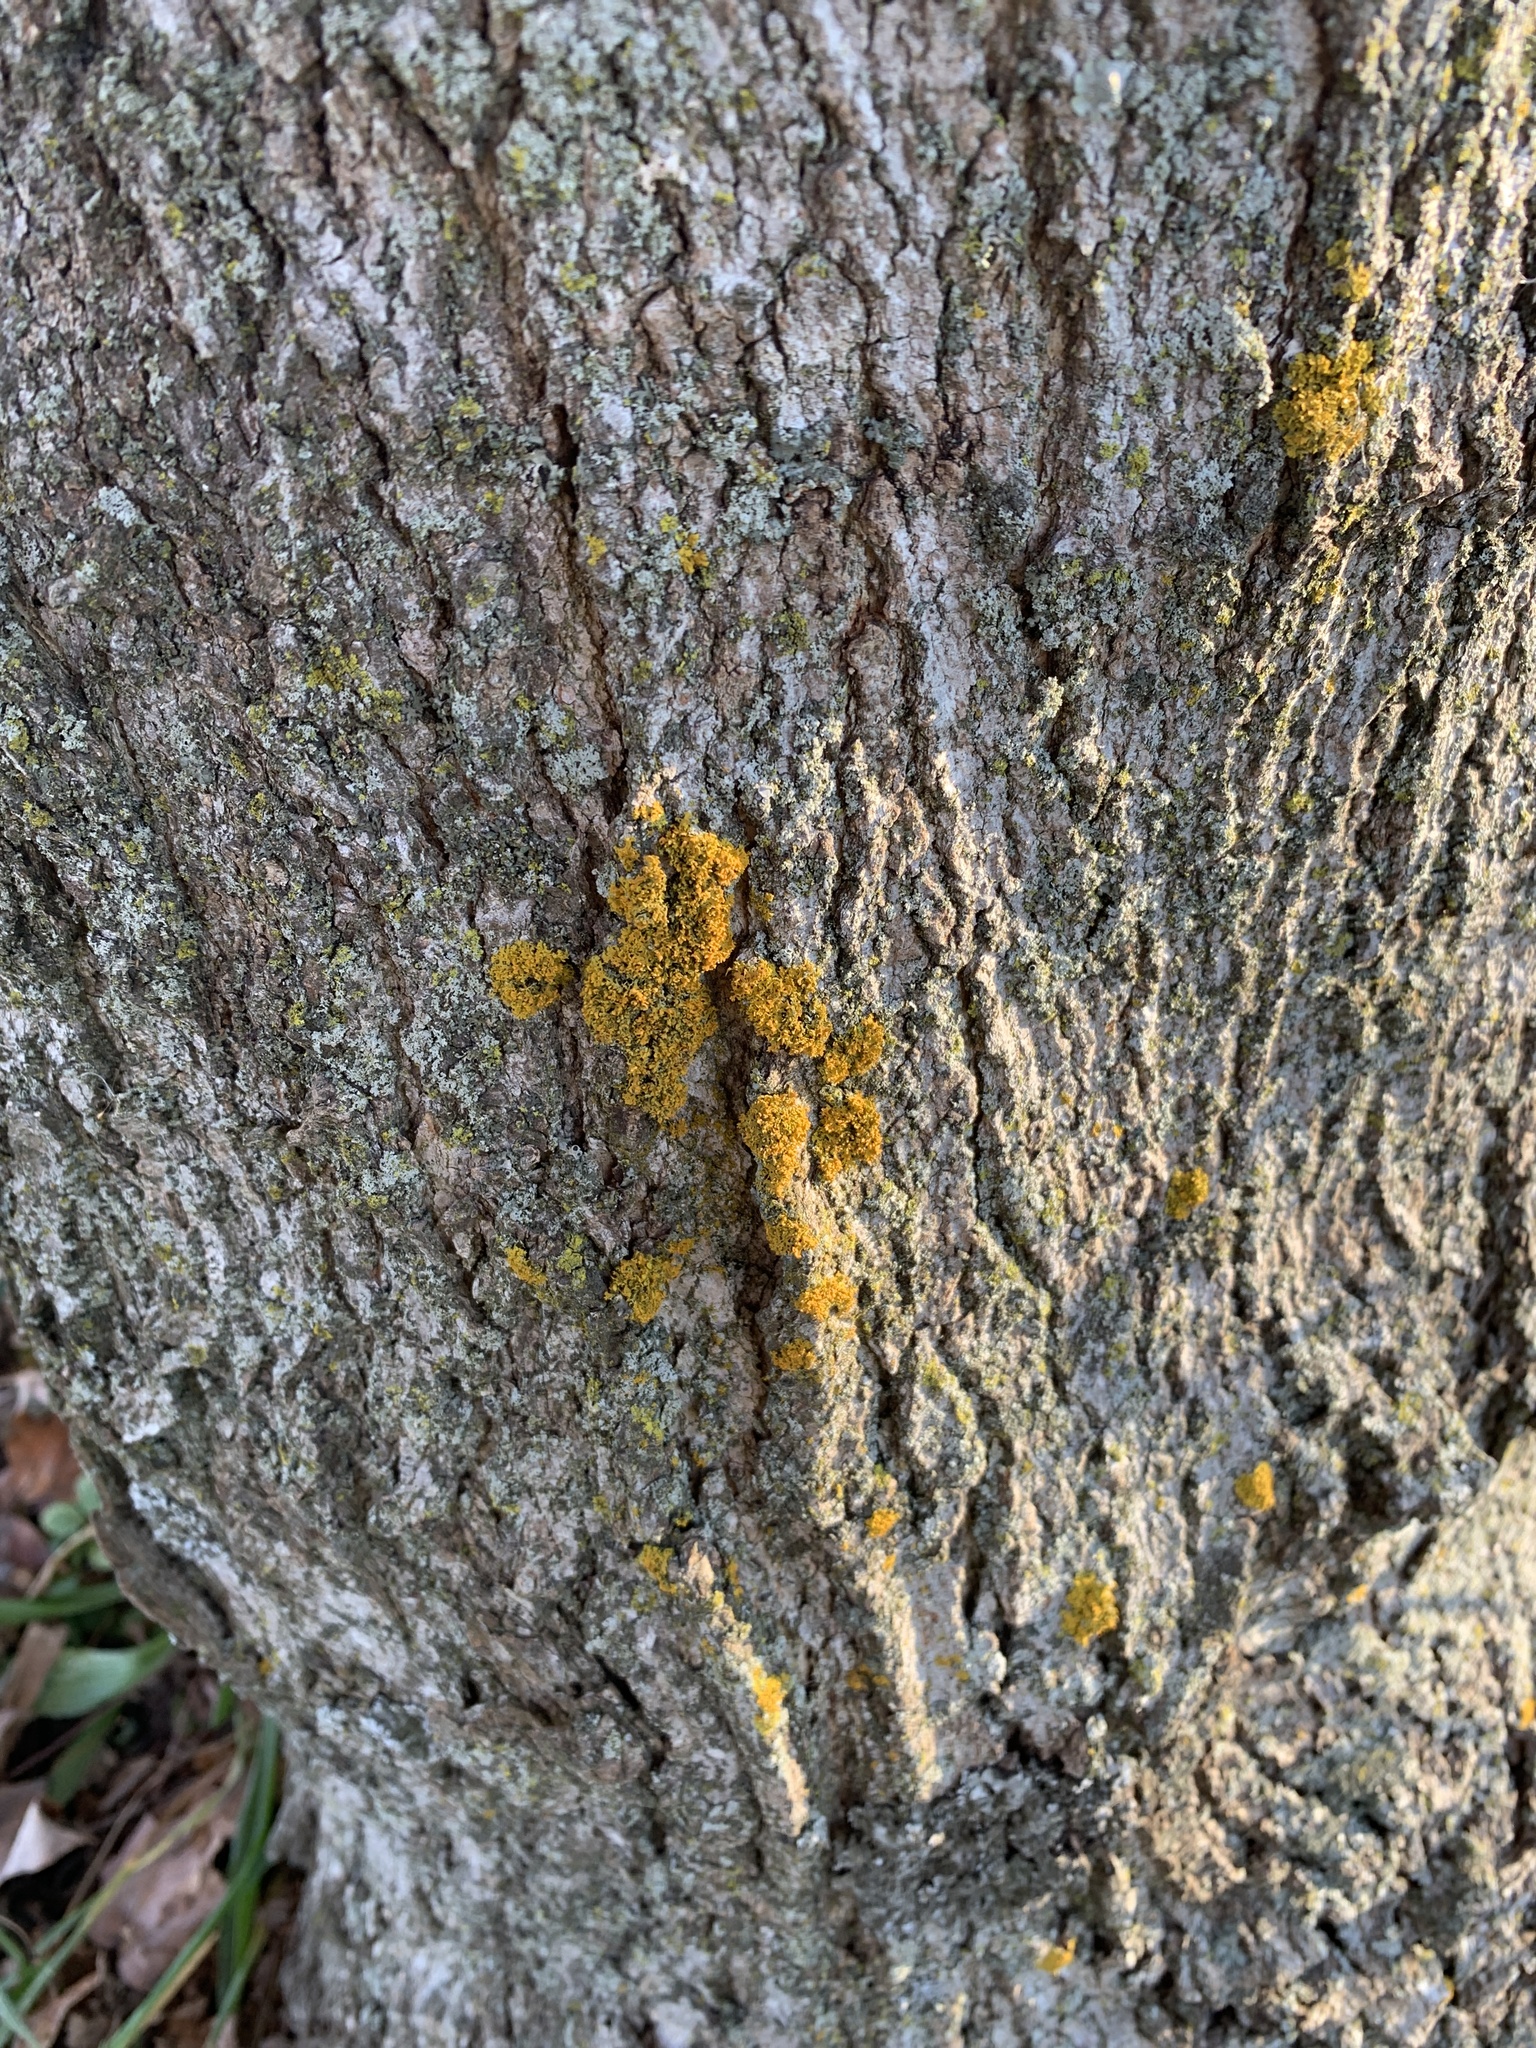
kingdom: Fungi
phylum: Ascomycota
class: Lecanoromycetes
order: Teloschistales
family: Teloschistaceae
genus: Oxneria
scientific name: Oxneria fallax
